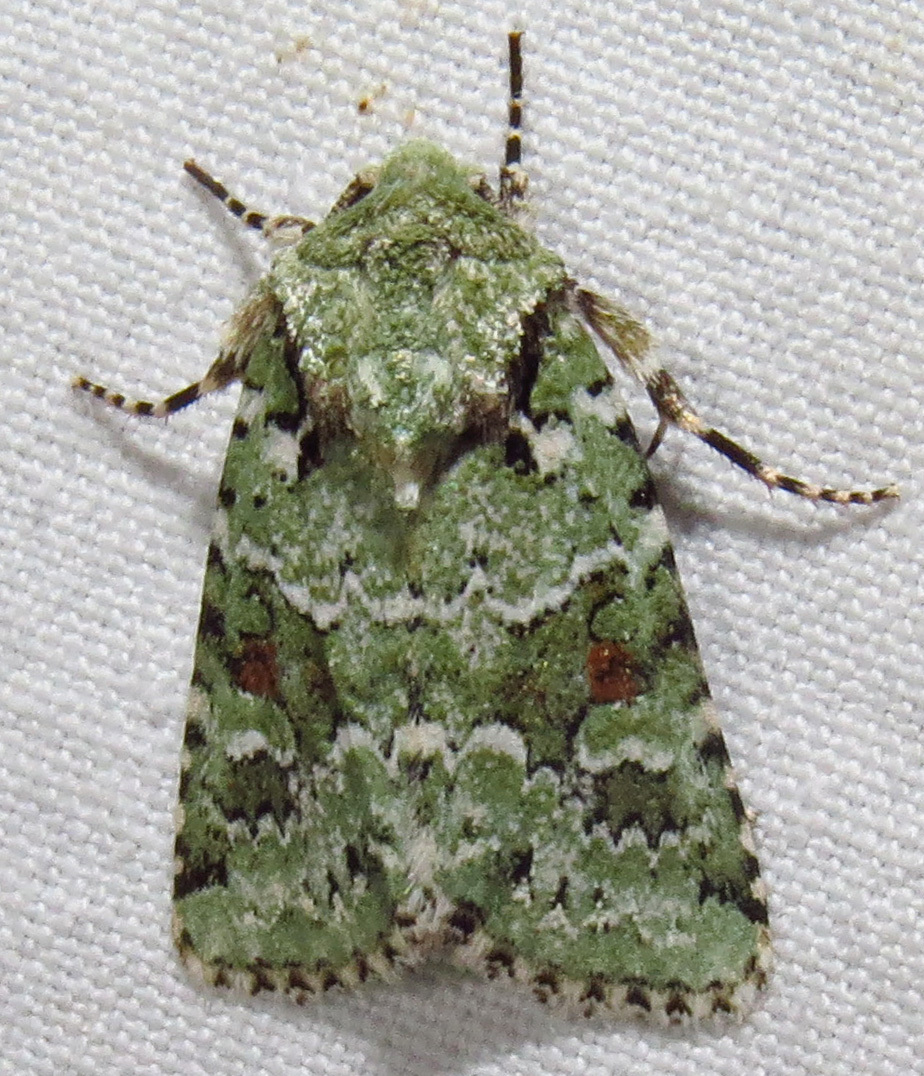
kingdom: Animalia
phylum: Arthropoda
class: Insecta
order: Lepidoptera
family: Noctuidae
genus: Lacinipolia
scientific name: Lacinipolia laudabilis
